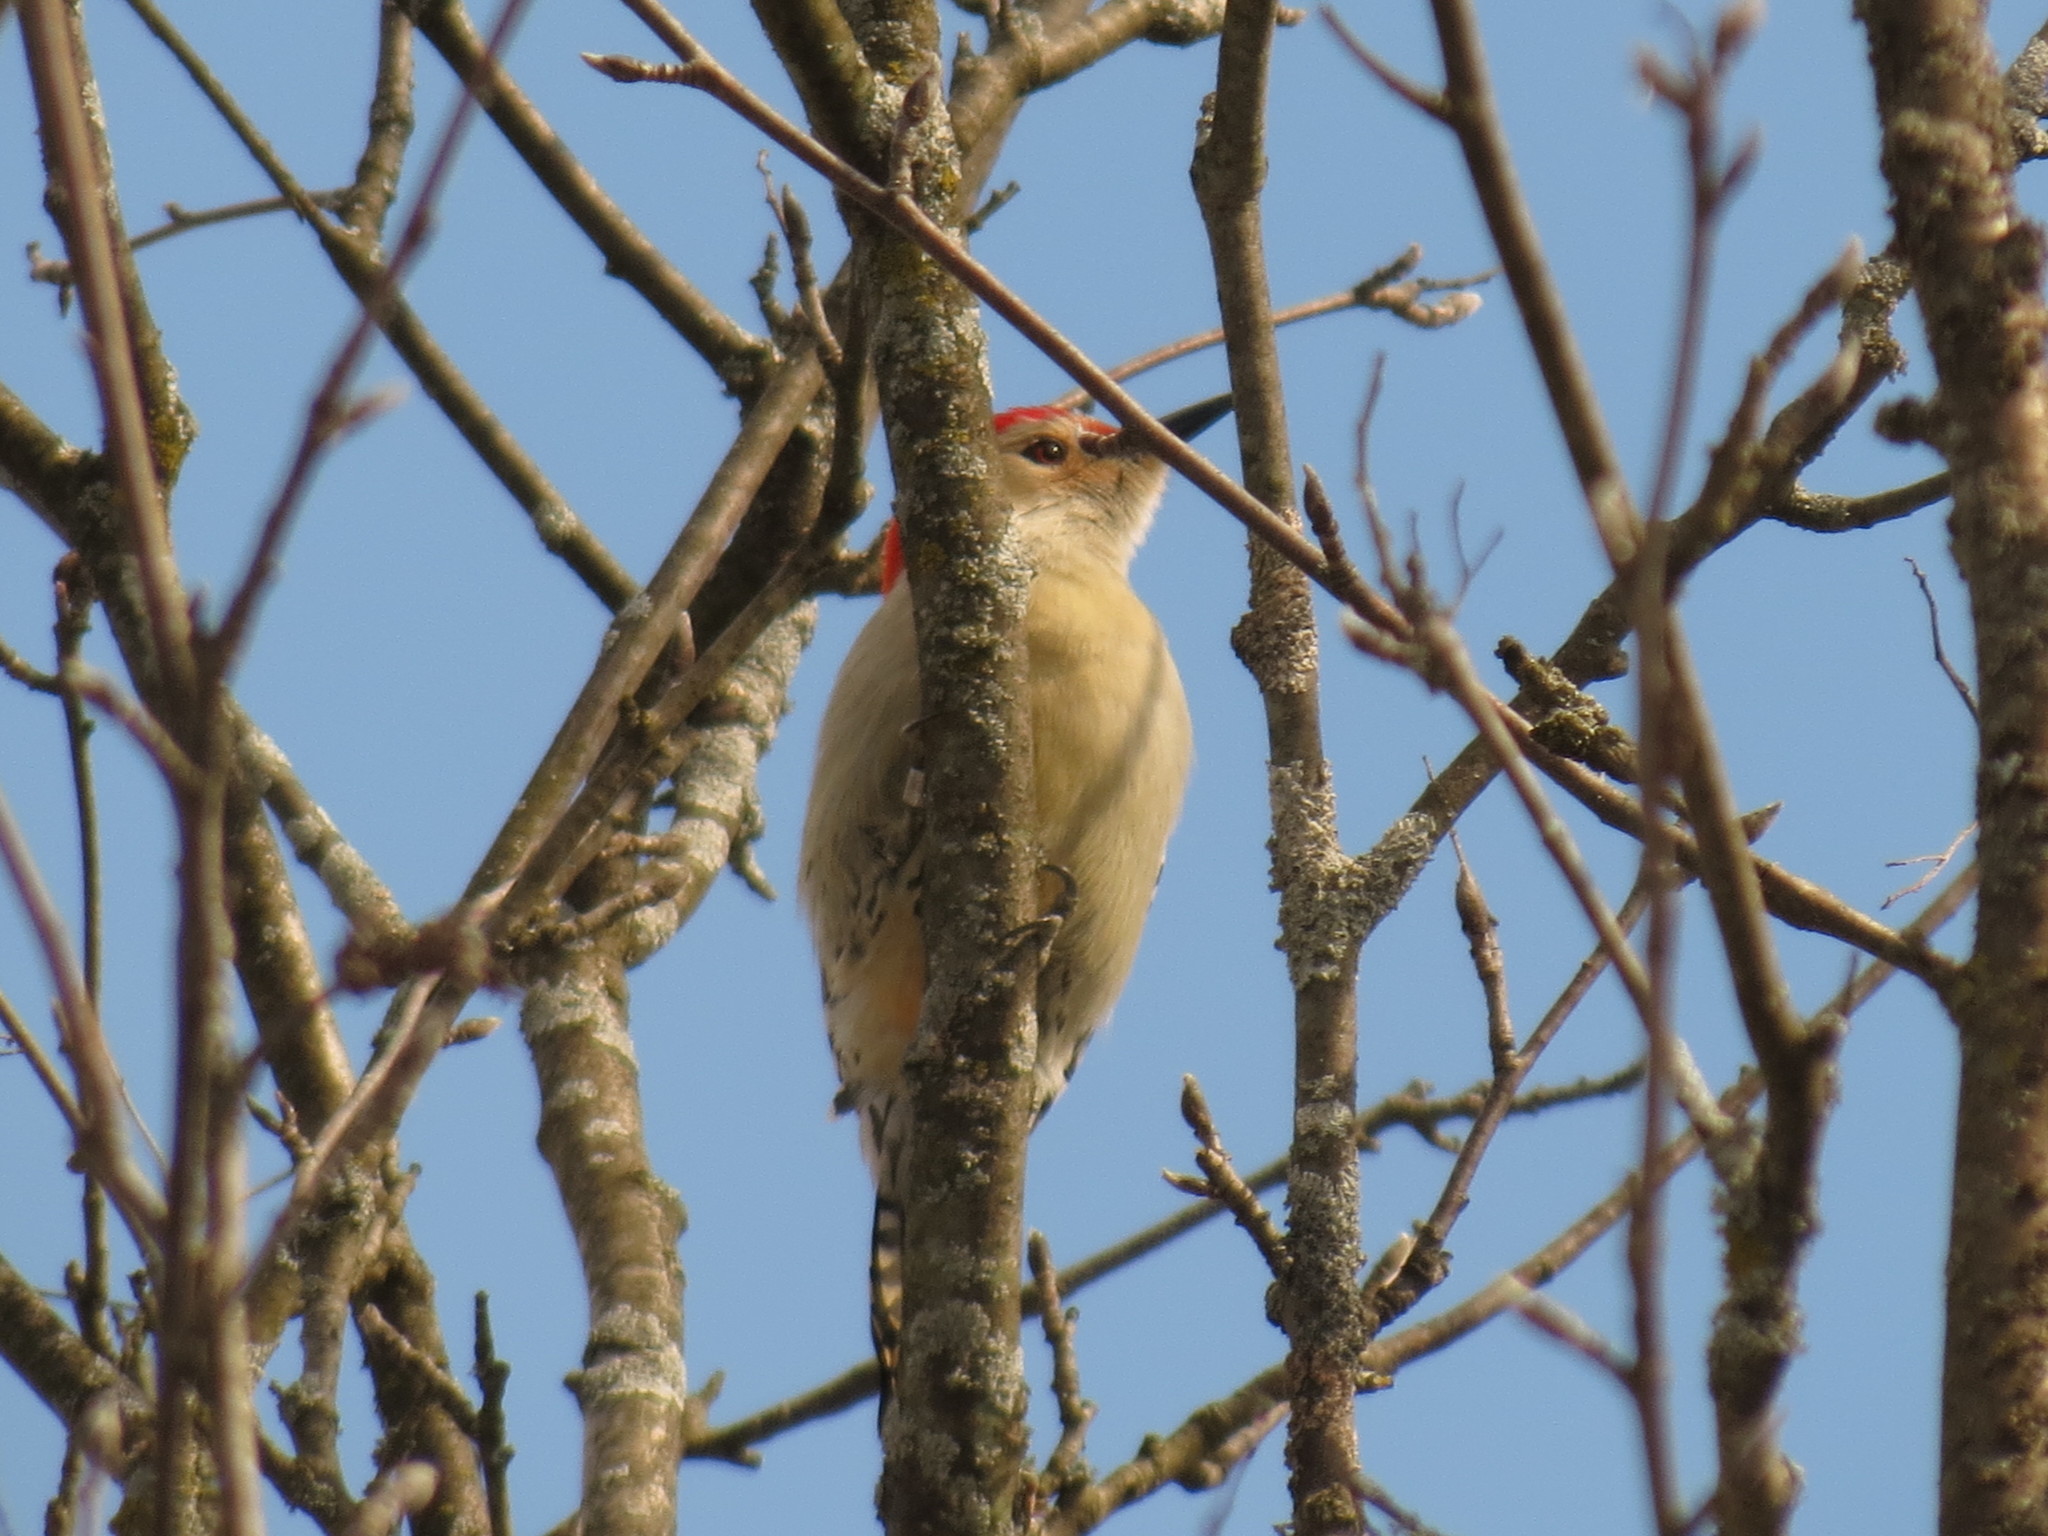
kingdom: Animalia
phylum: Chordata
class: Aves
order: Piciformes
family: Picidae
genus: Melanerpes
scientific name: Melanerpes carolinus
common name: Red-bellied woodpecker
